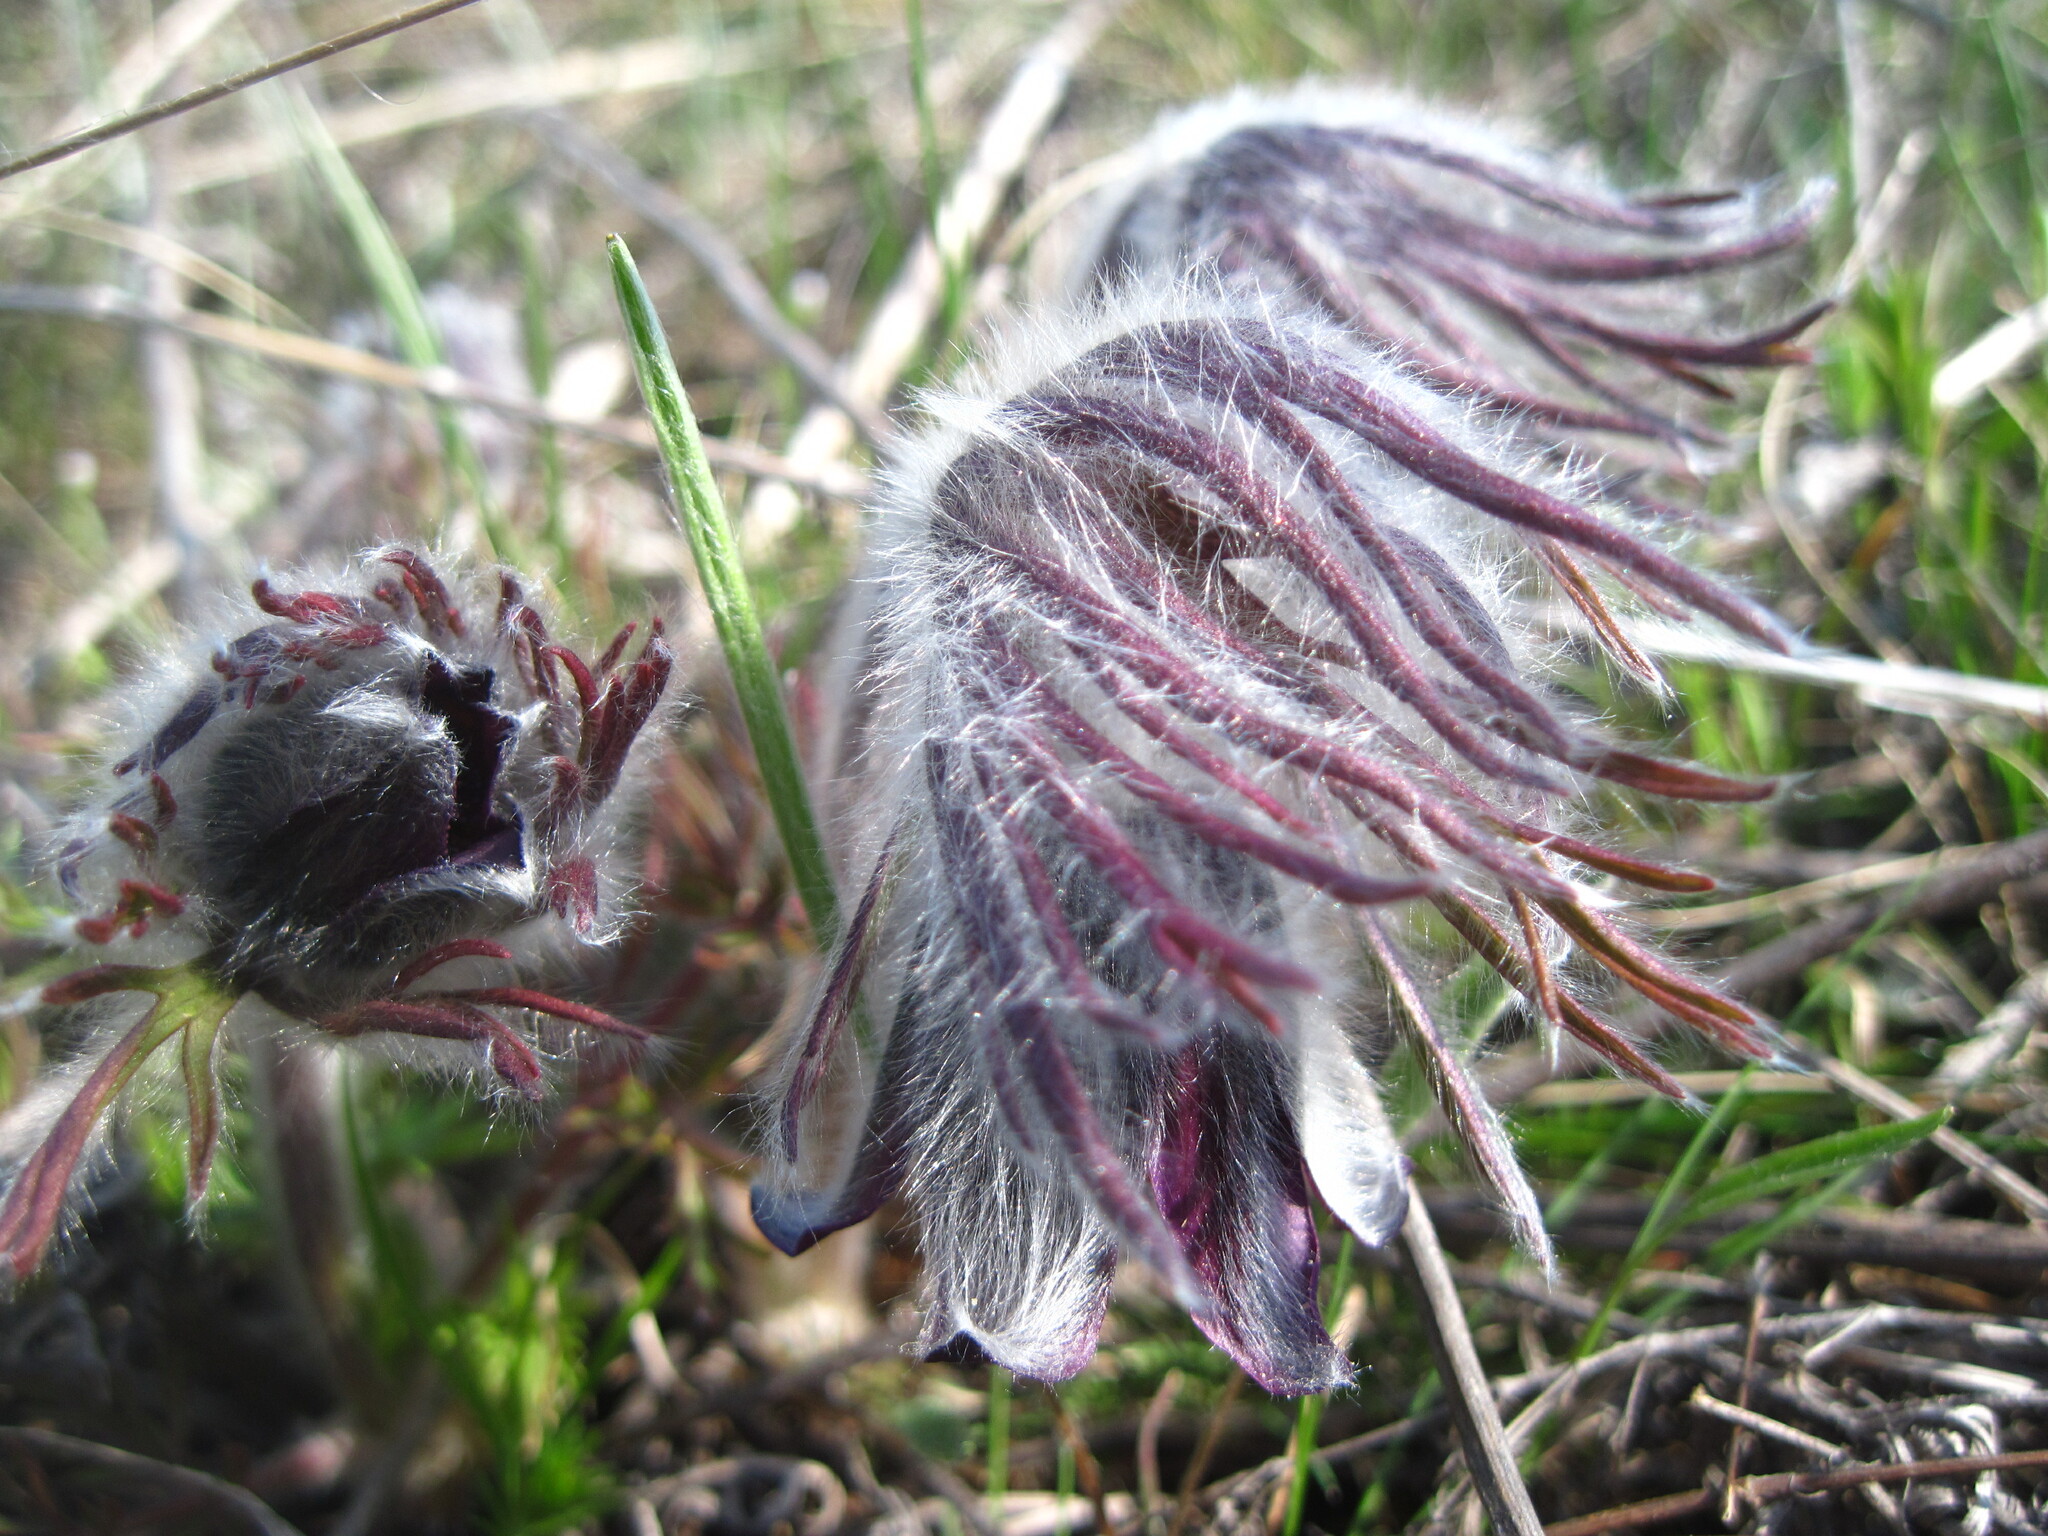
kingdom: Plantae
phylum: Tracheophyta
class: Magnoliopsida
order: Ranunculales
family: Ranunculaceae
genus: Pulsatilla
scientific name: Pulsatilla pratensis
